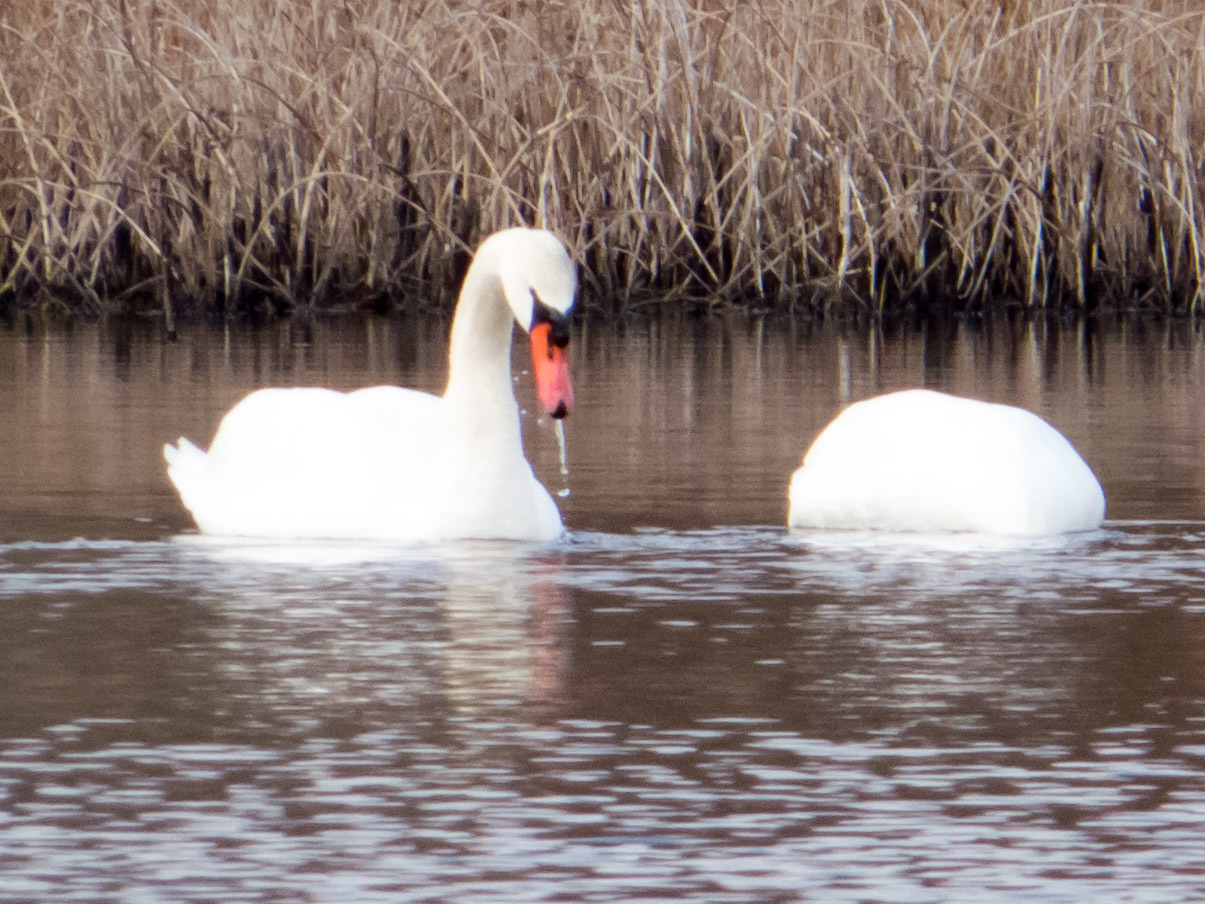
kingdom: Animalia
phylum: Chordata
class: Aves
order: Anseriformes
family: Anatidae
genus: Cygnus
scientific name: Cygnus olor
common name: Mute swan
